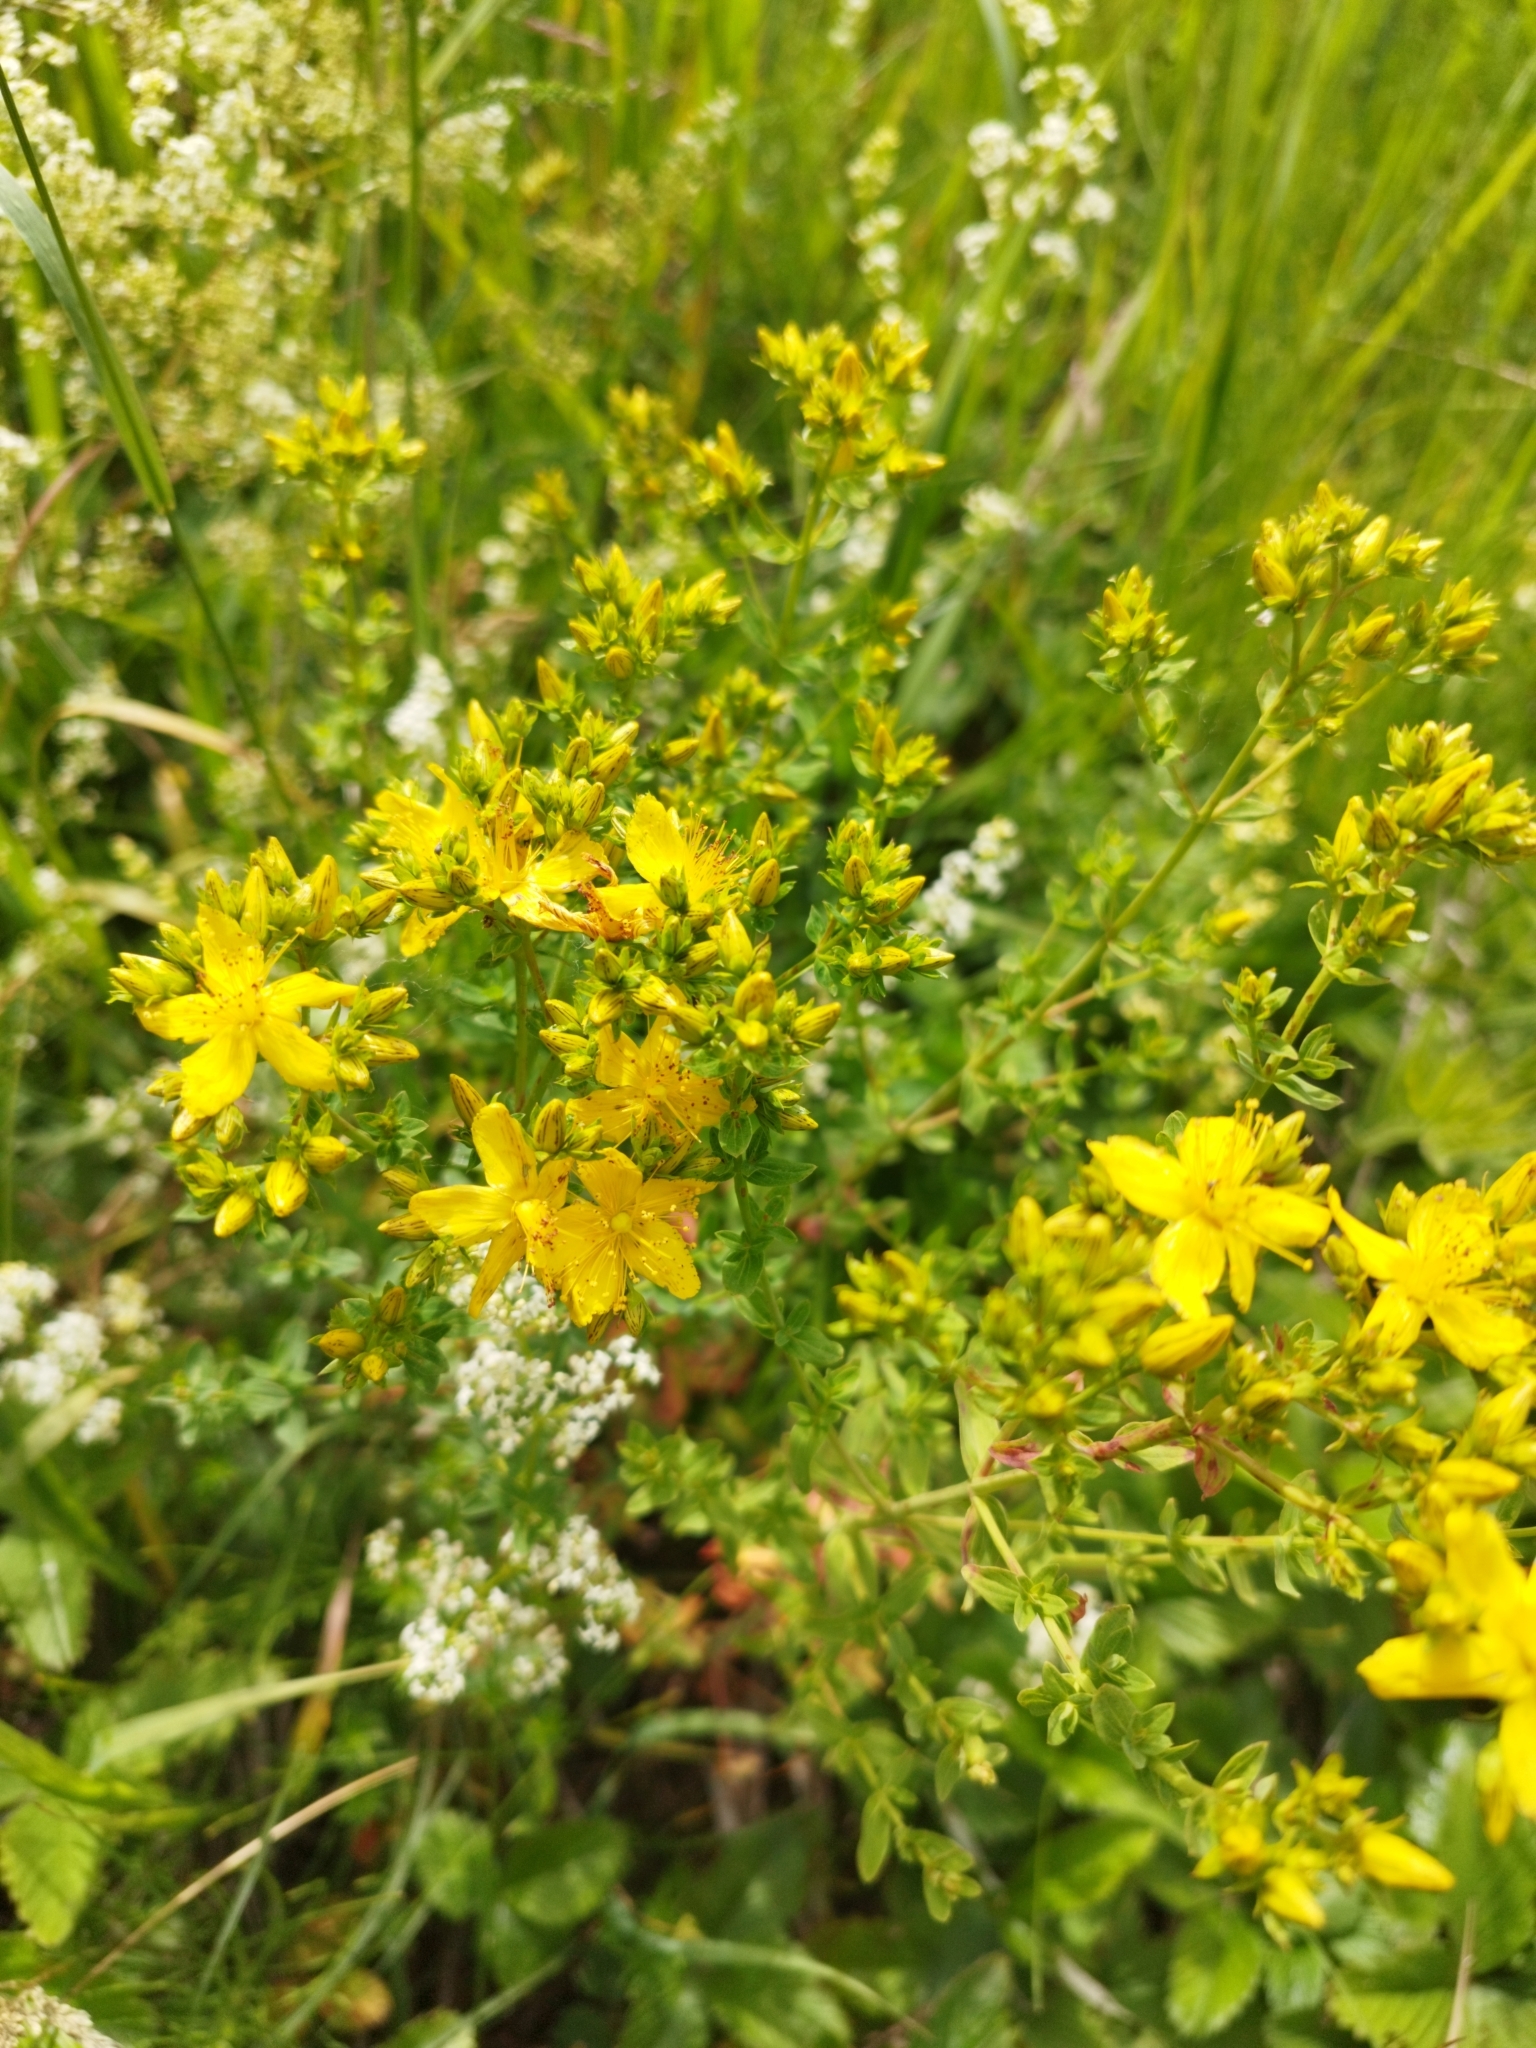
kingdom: Plantae
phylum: Tracheophyta
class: Magnoliopsida
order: Malpighiales
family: Hypericaceae
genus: Hypericum
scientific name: Hypericum perforatum
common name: Common st. johnswort
